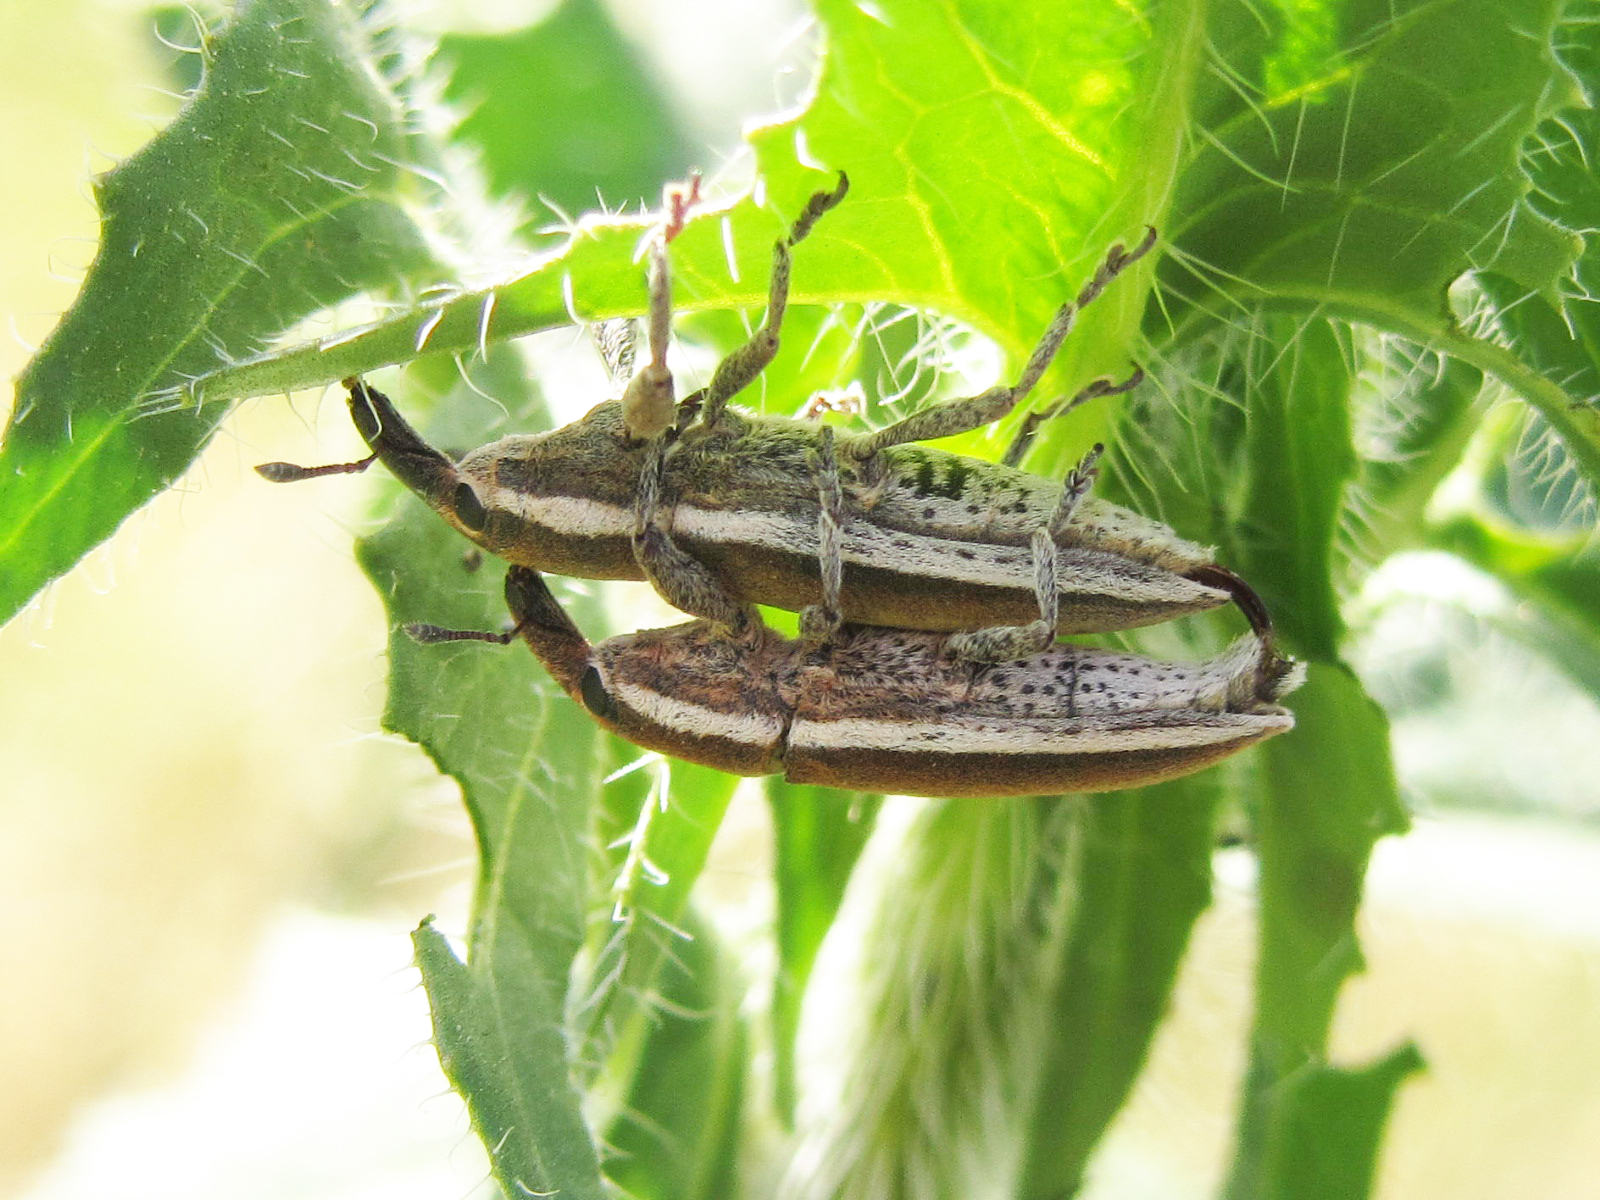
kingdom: Animalia
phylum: Arthropoda
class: Insecta
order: Coleoptera
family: Curculionidae
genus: Lixus
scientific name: Lixus albomarginatus
